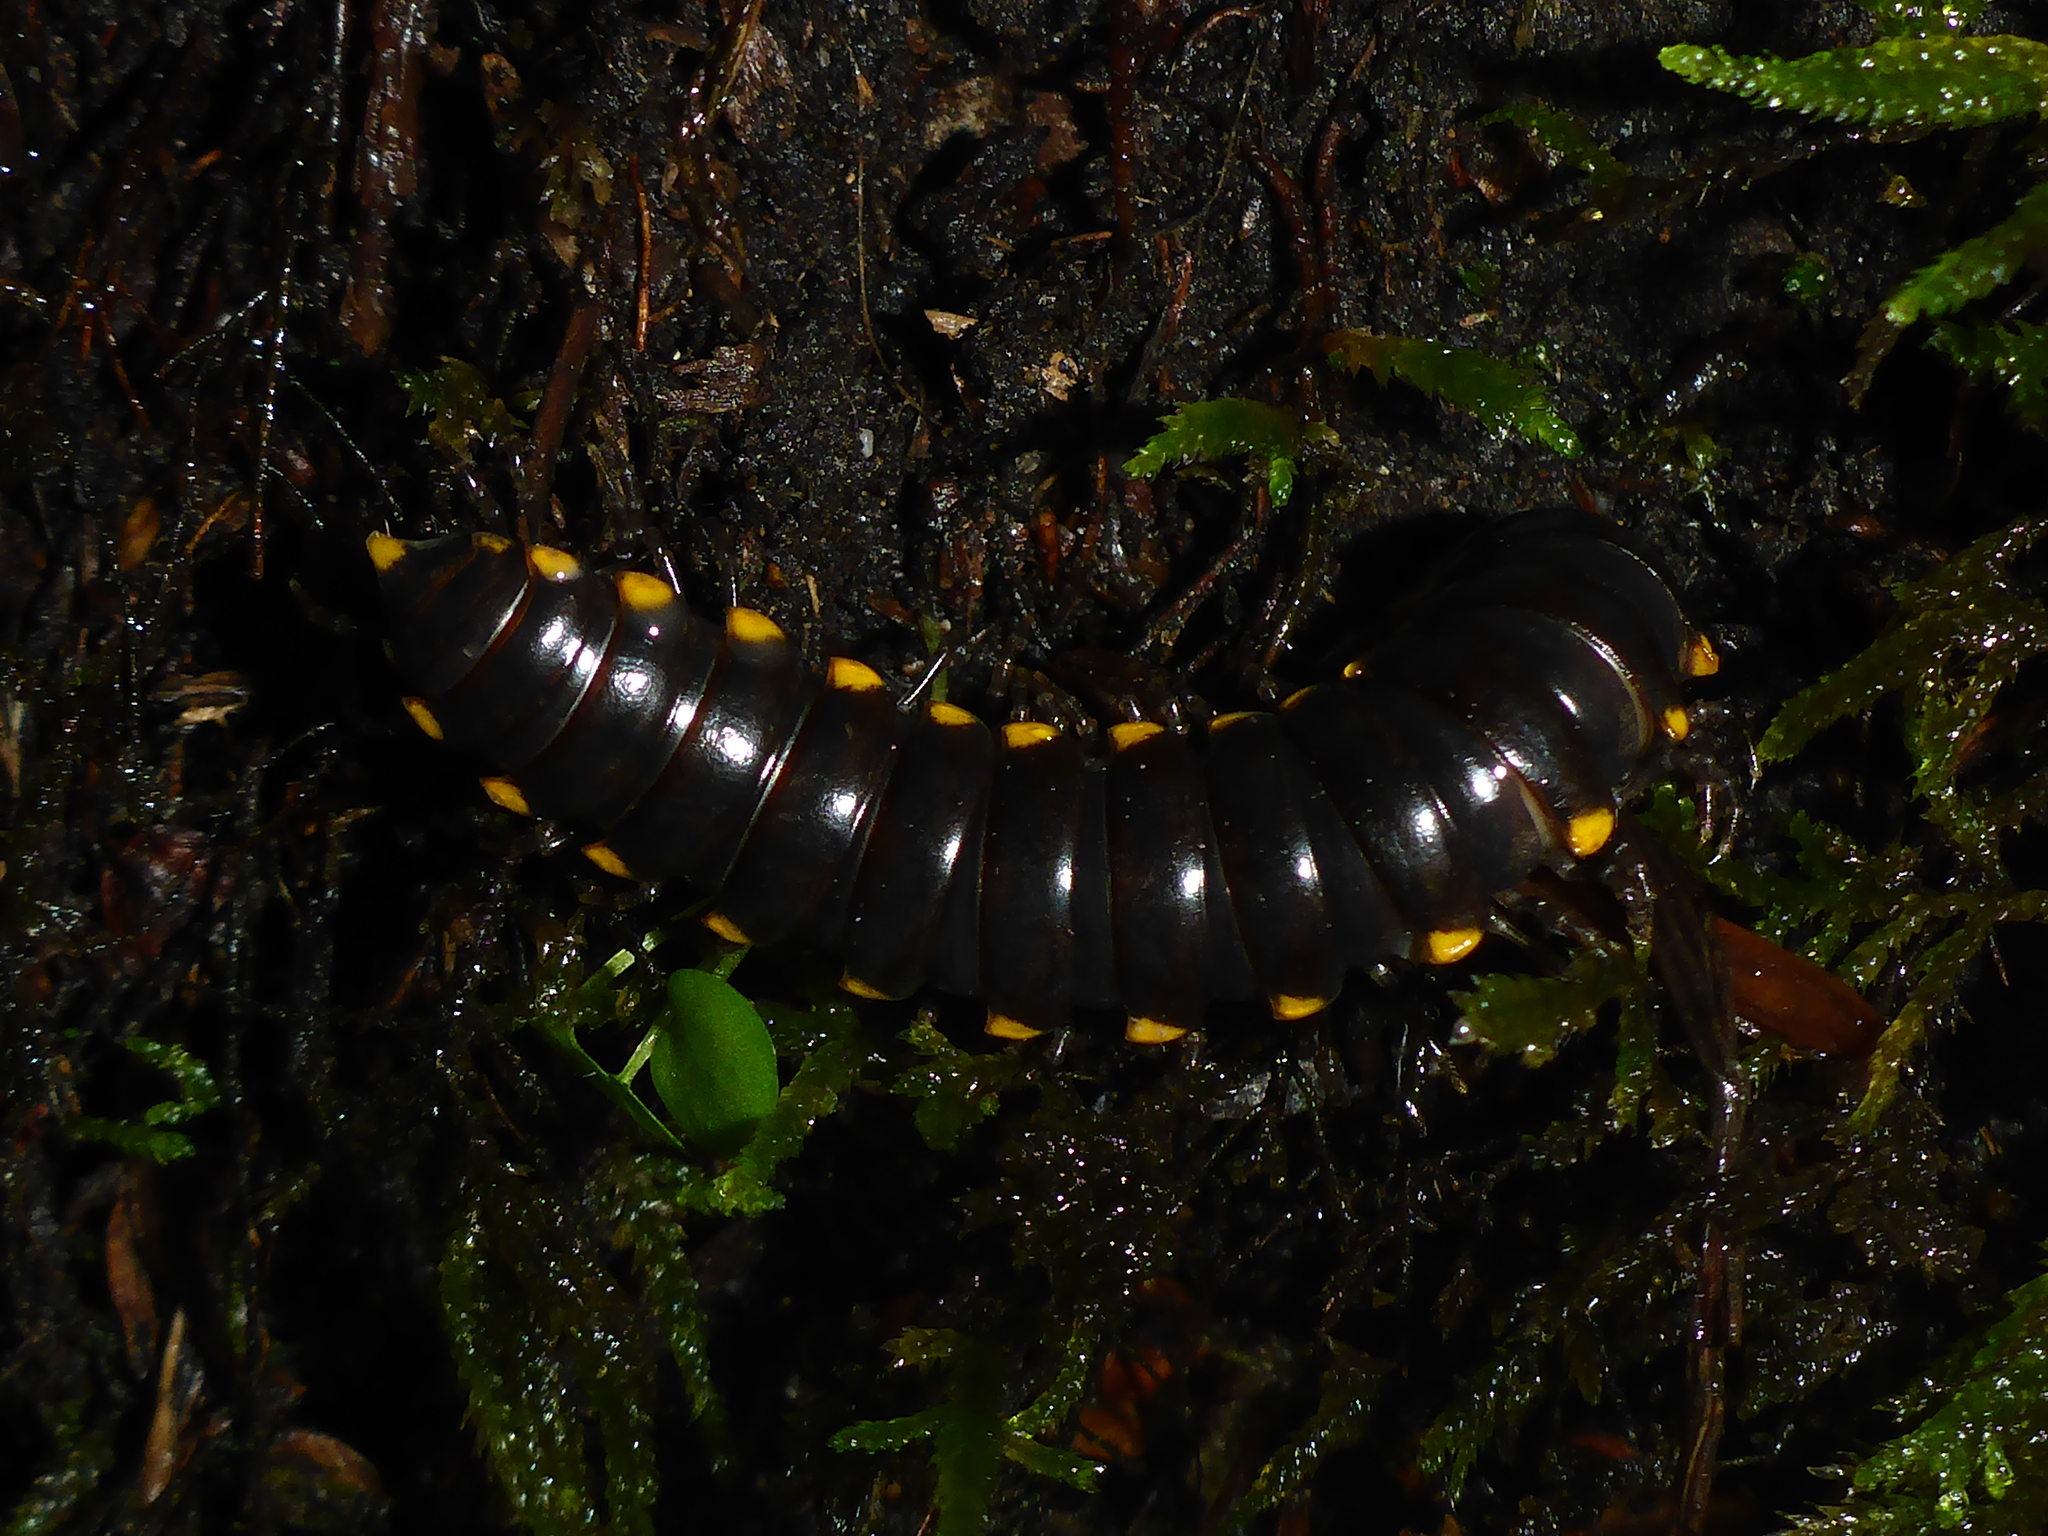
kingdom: Animalia
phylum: Arthropoda
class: Diplopoda
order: Polydesmida
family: Xystodesmidae
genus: Harpaphe
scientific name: Harpaphe haydeniana
